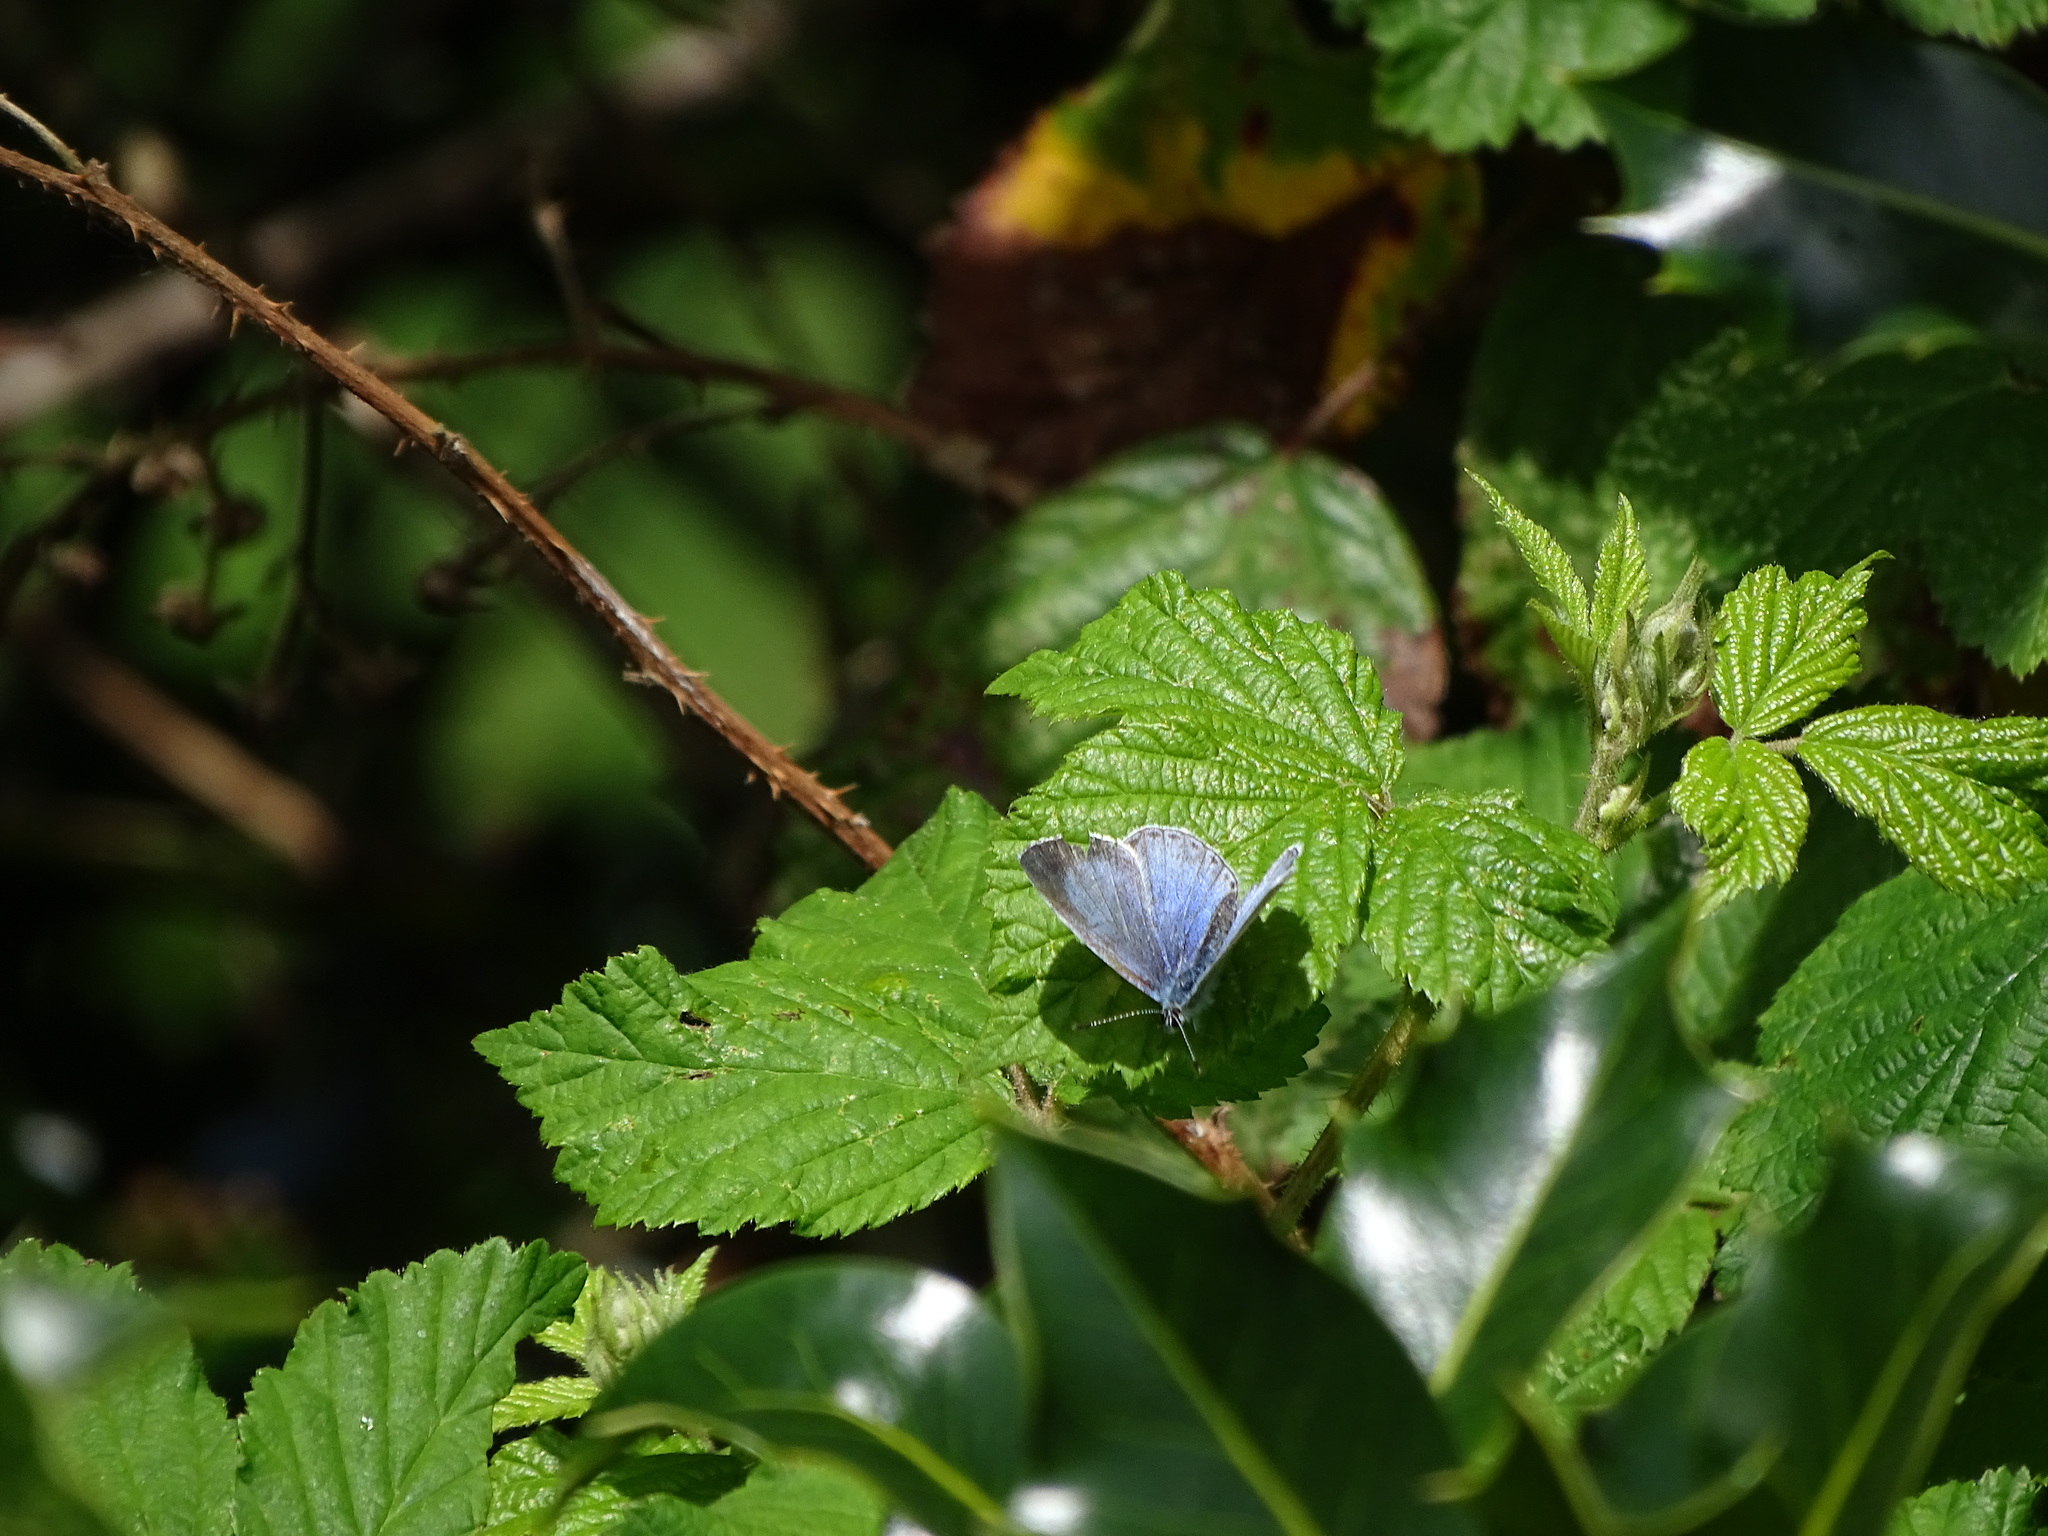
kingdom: Animalia
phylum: Arthropoda
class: Insecta
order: Lepidoptera
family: Lycaenidae
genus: Celastrina
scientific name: Celastrina argiolus
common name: Holly blue
